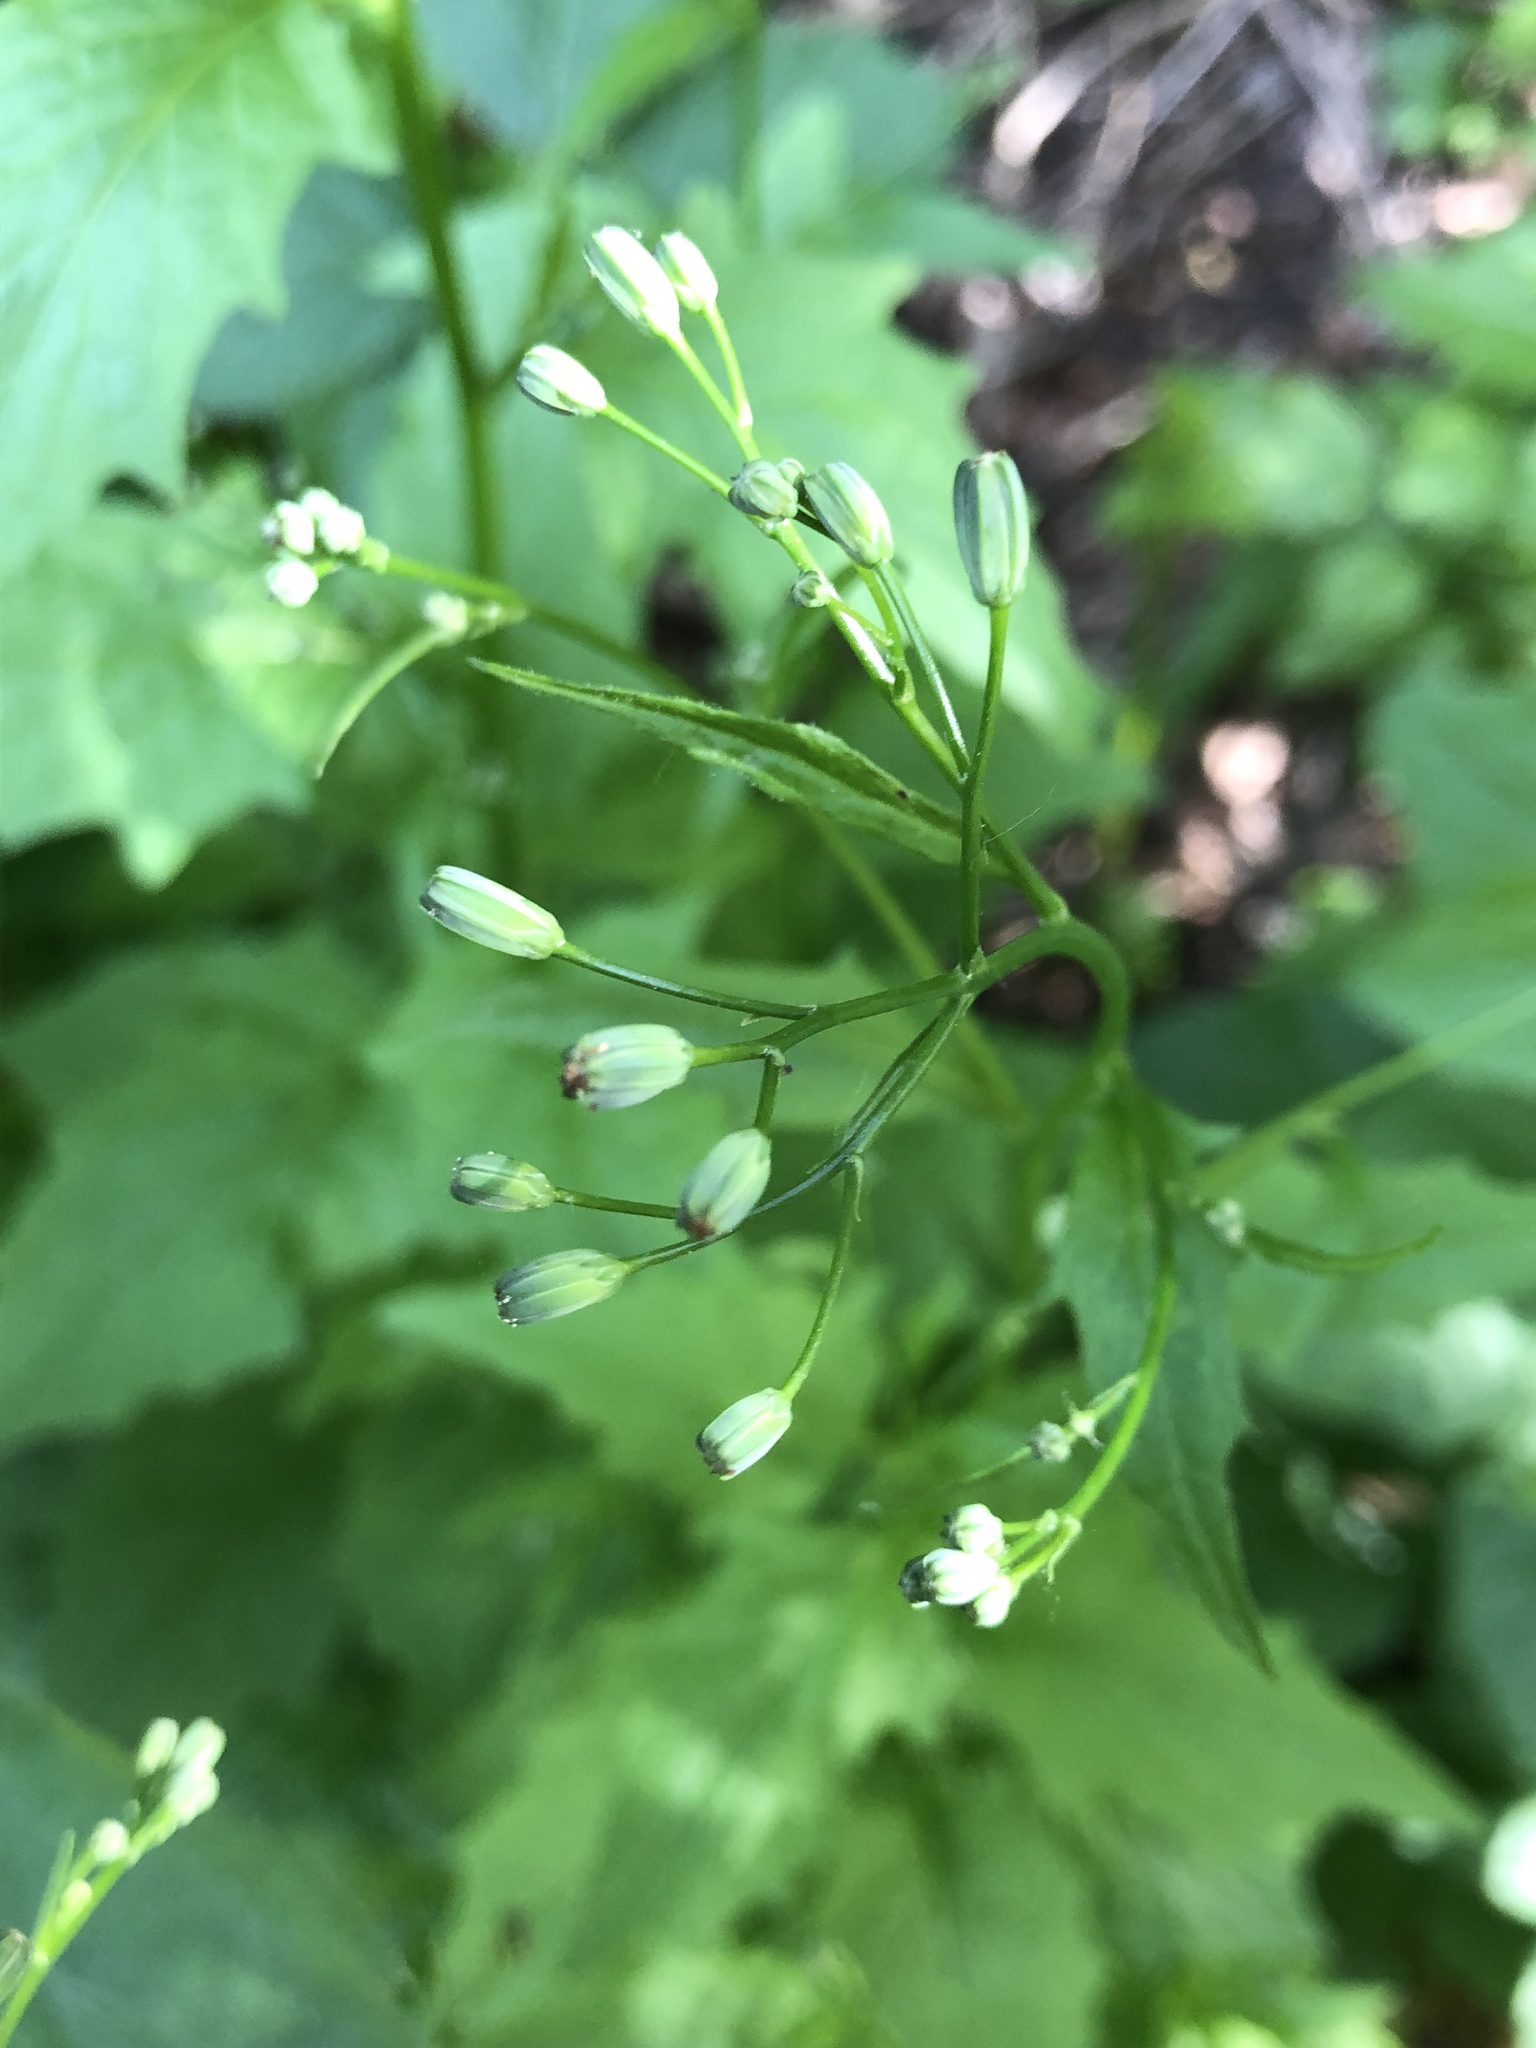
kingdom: Plantae
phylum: Tracheophyta
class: Magnoliopsida
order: Asterales
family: Asteraceae
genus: Lapsana
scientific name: Lapsana communis
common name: Nipplewort
